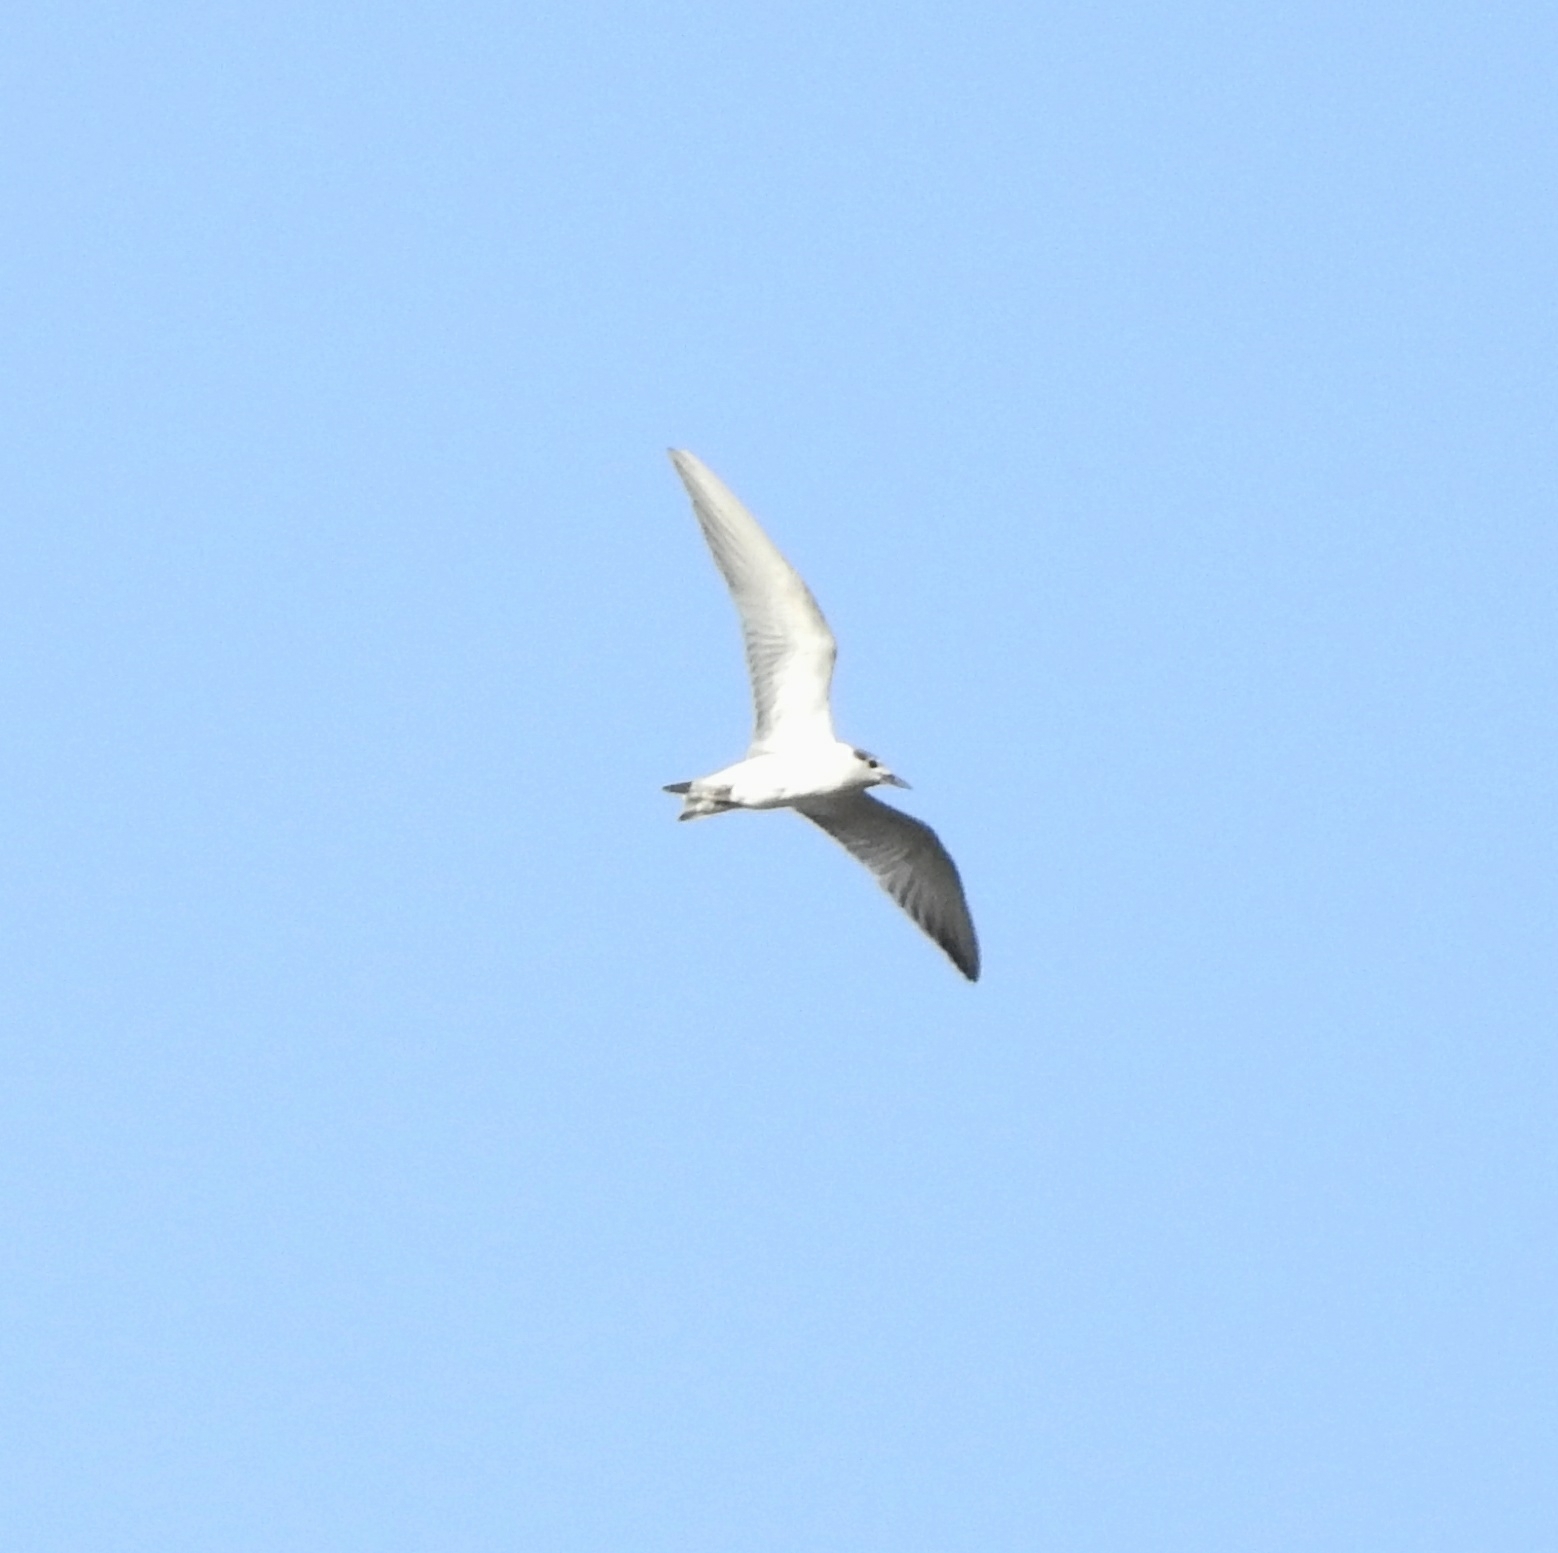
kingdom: Animalia
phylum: Chordata
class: Aves
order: Charadriiformes
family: Laridae
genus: Chlidonias
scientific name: Chlidonias hybrida
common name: Whiskered tern
